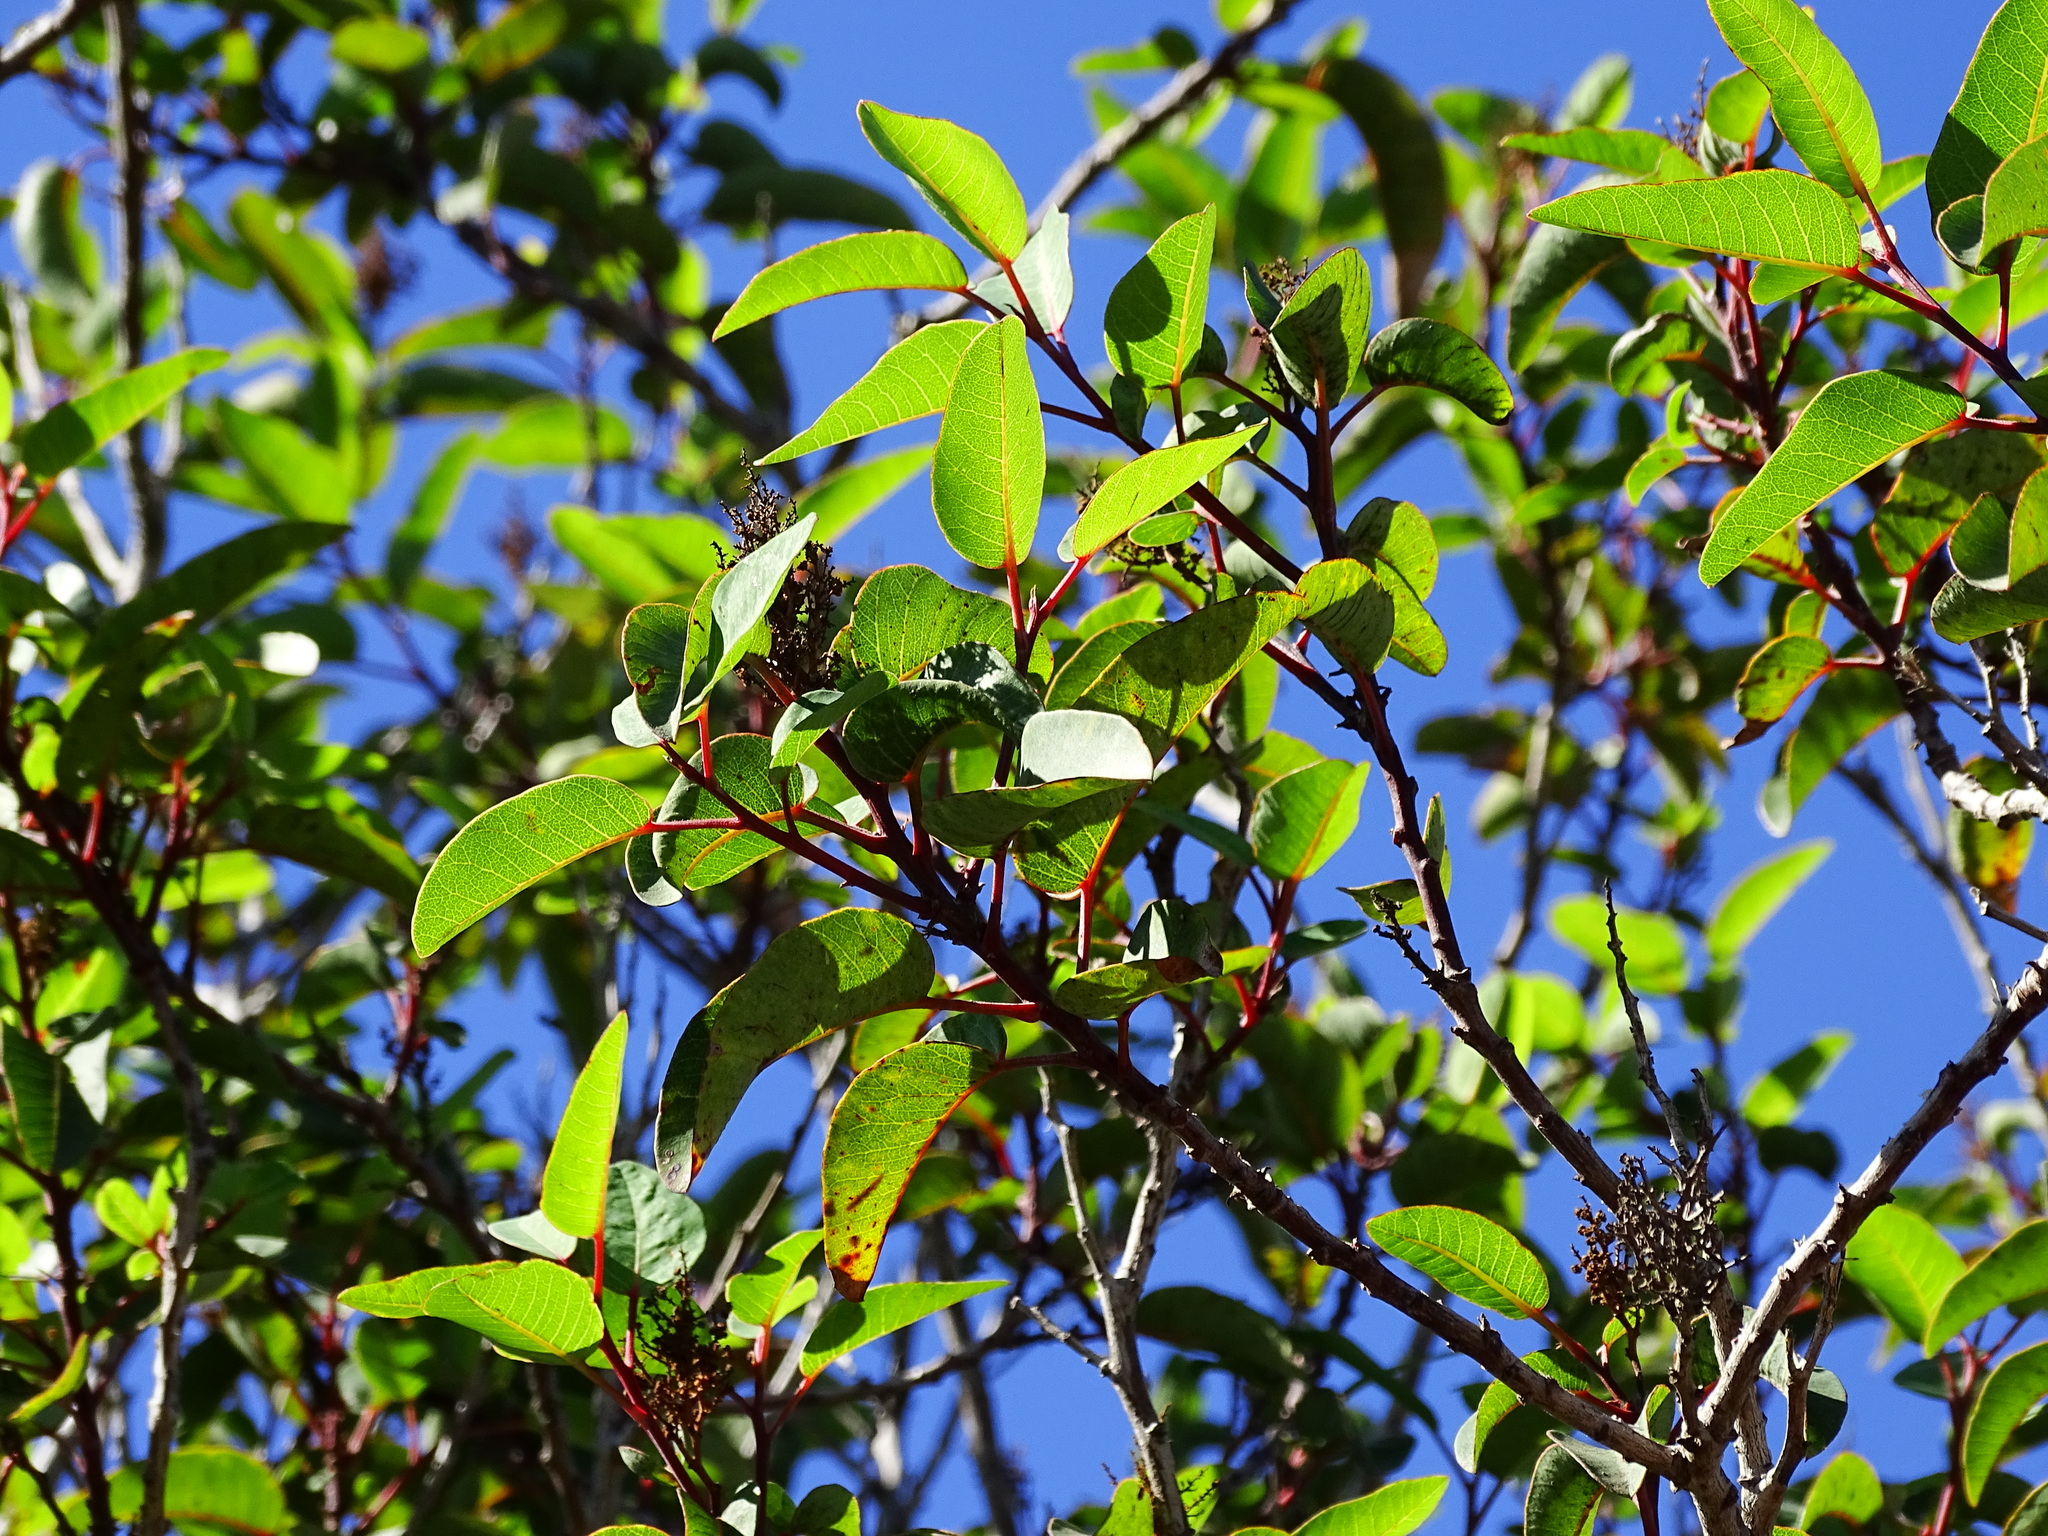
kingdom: Plantae
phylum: Tracheophyta
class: Magnoliopsida
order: Sapindales
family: Anacardiaceae
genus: Malosma
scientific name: Malosma laurina
